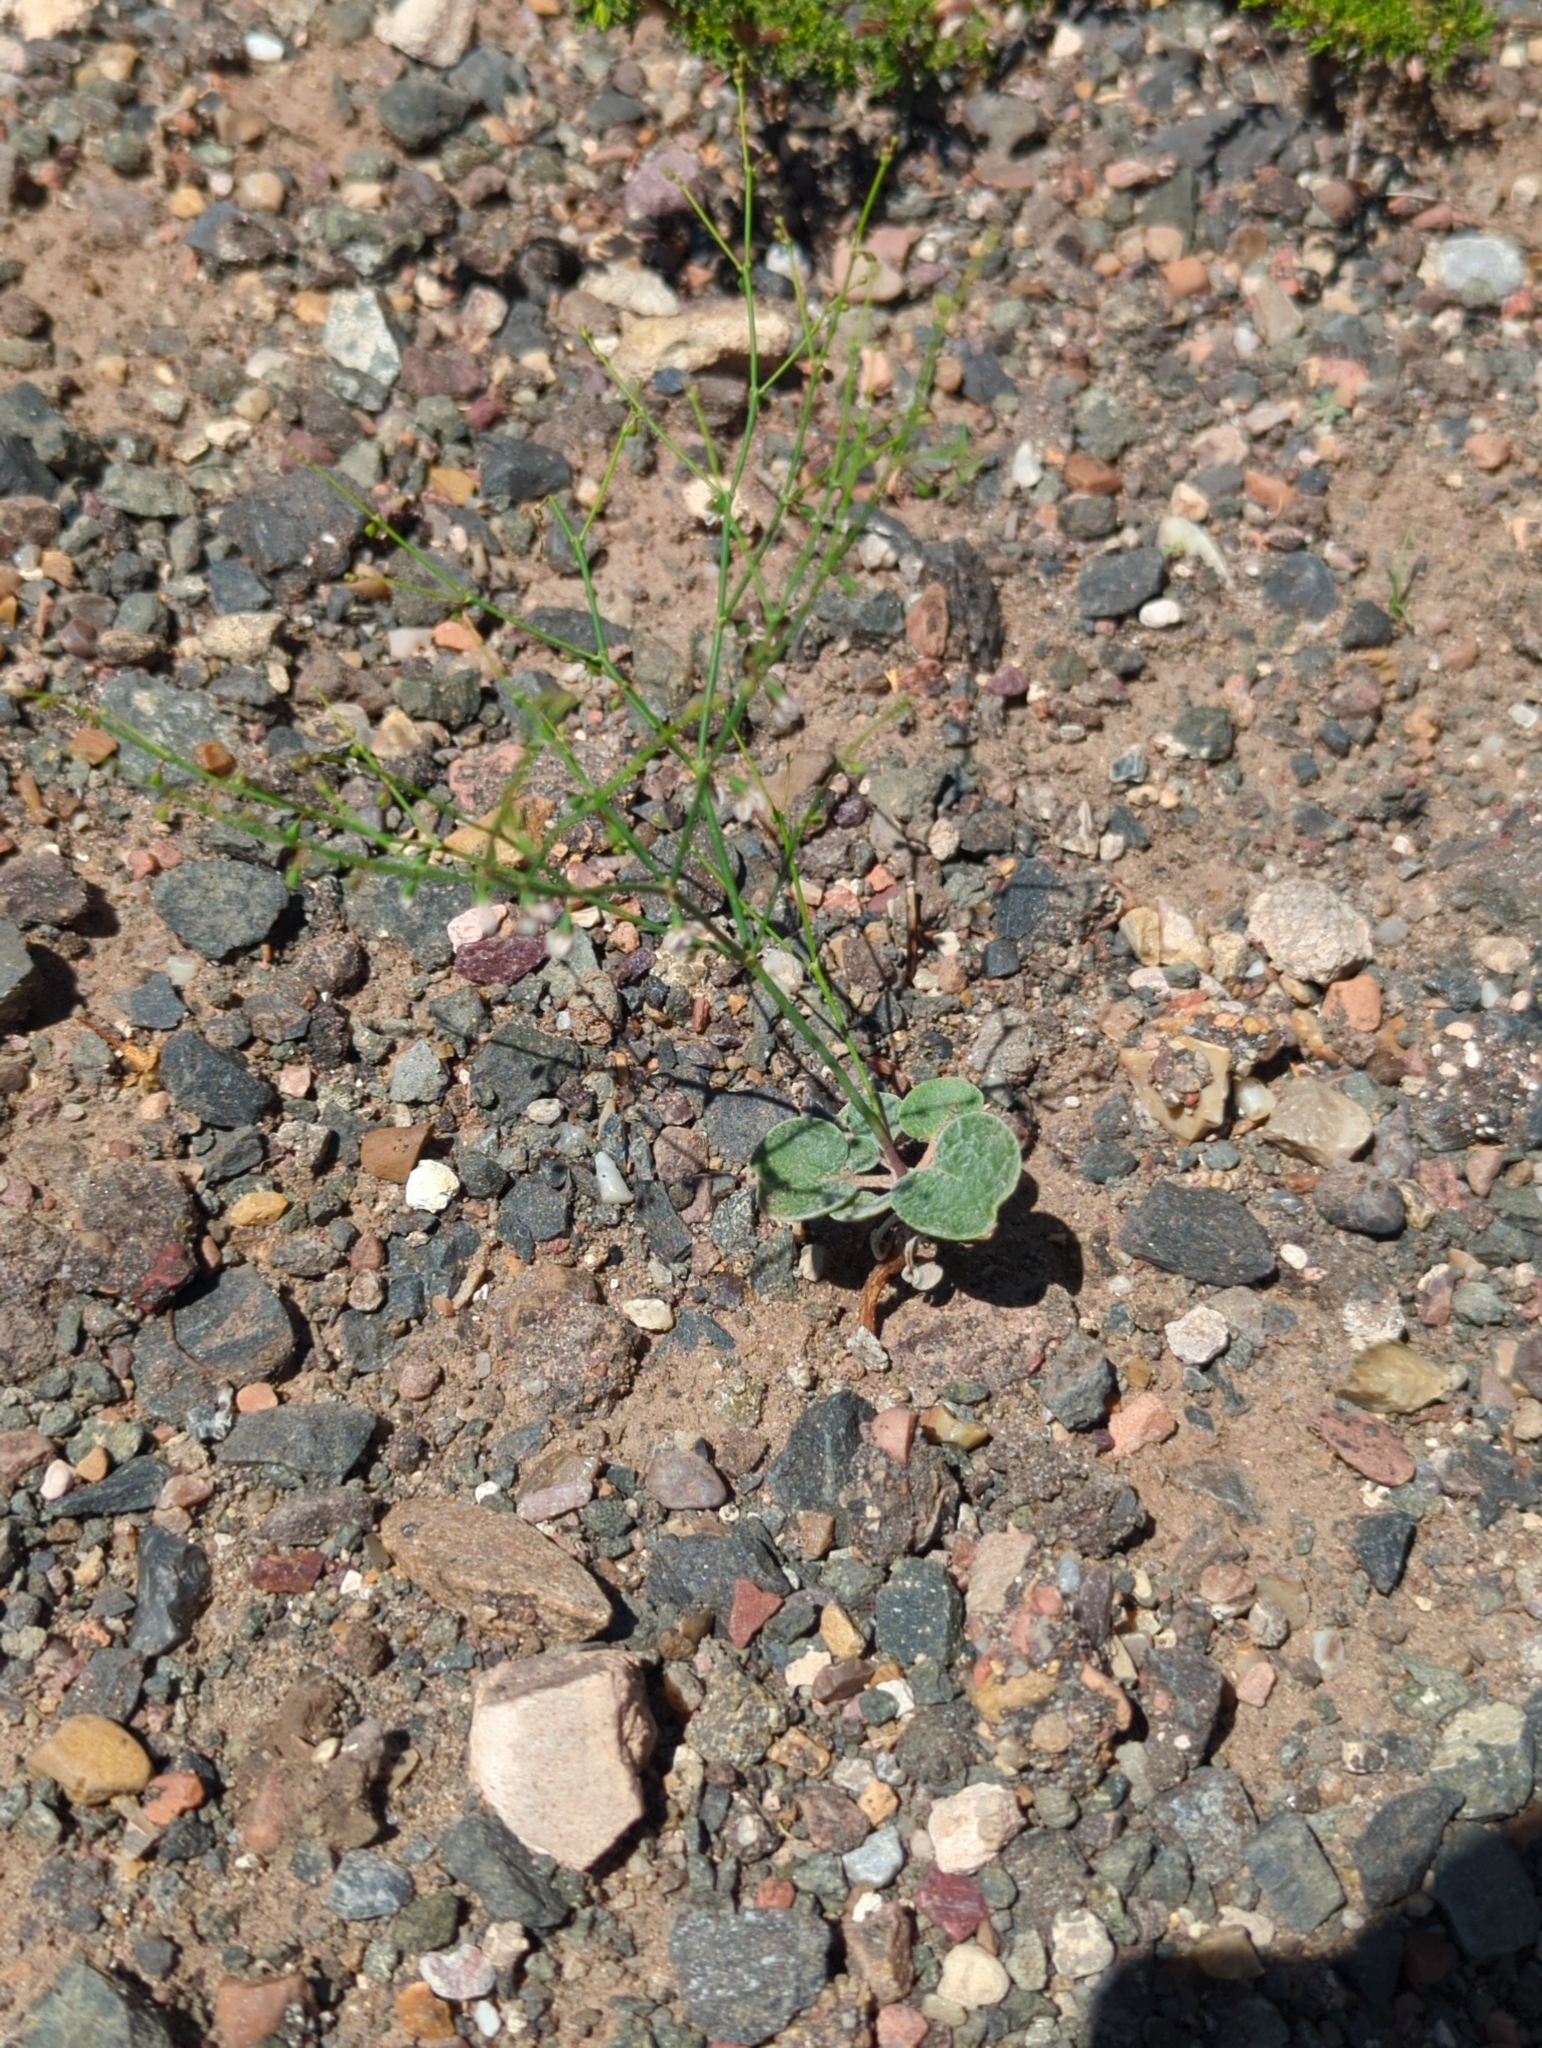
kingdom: Plantae
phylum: Tracheophyta
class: Magnoliopsida
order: Caryophyllales
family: Polygonaceae
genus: Eriogonum
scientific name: Eriogonum trichopes
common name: Little desert trumpet
